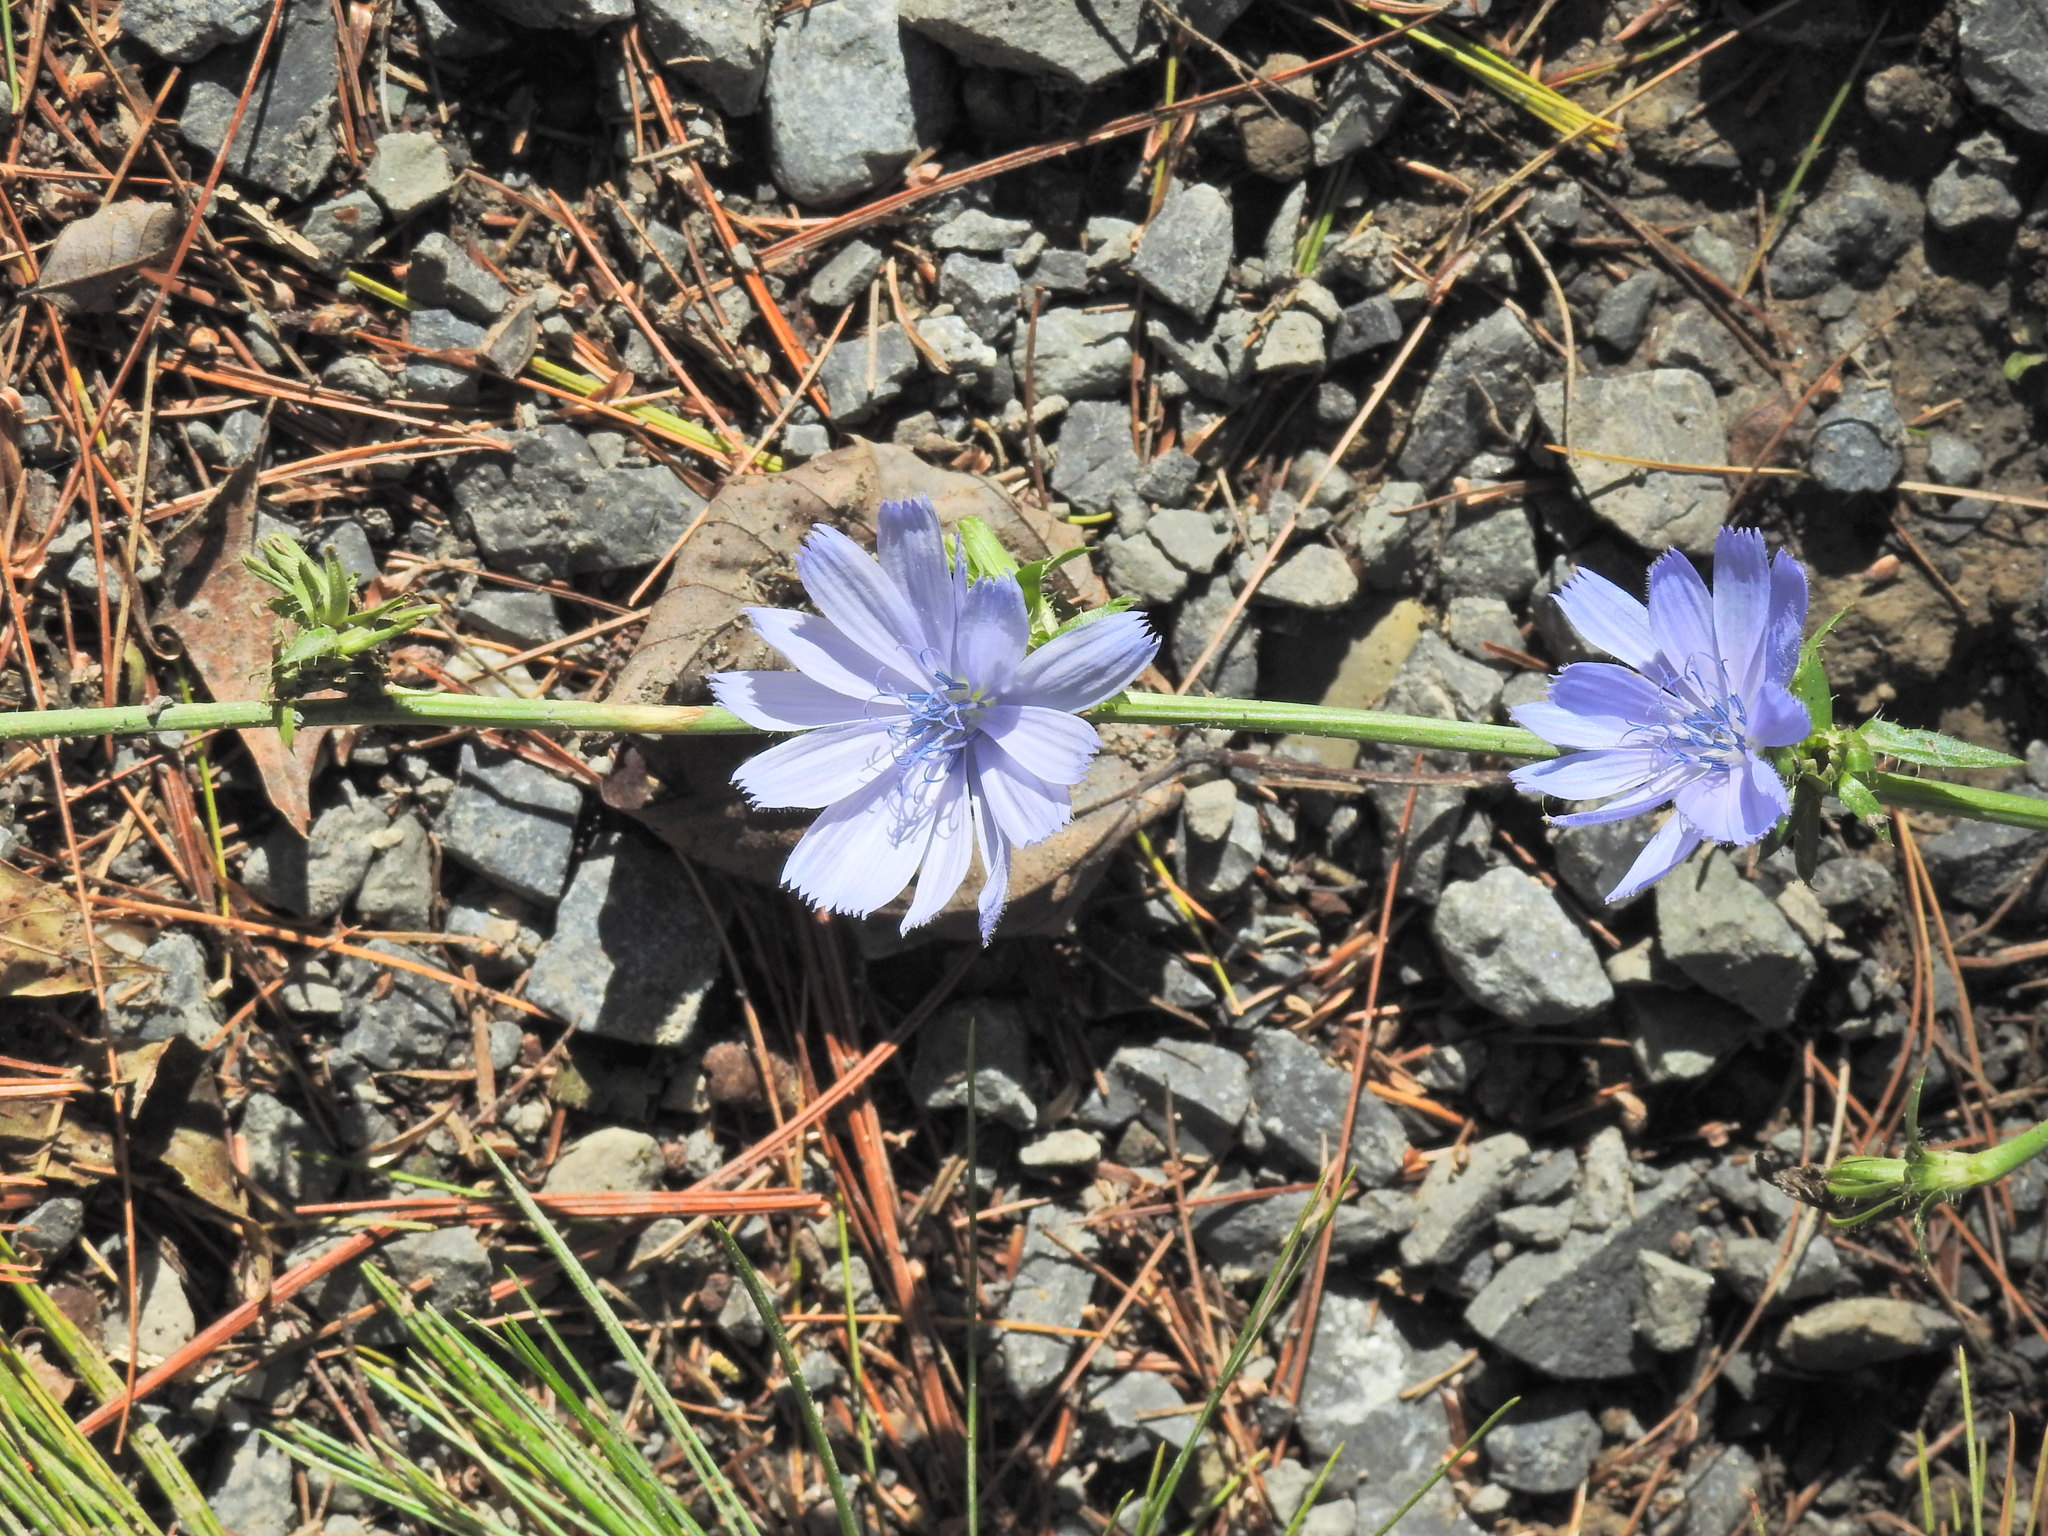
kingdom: Plantae
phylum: Tracheophyta
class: Magnoliopsida
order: Asterales
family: Asteraceae
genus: Cichorium
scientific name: Cichorium intybus
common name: Chicory
